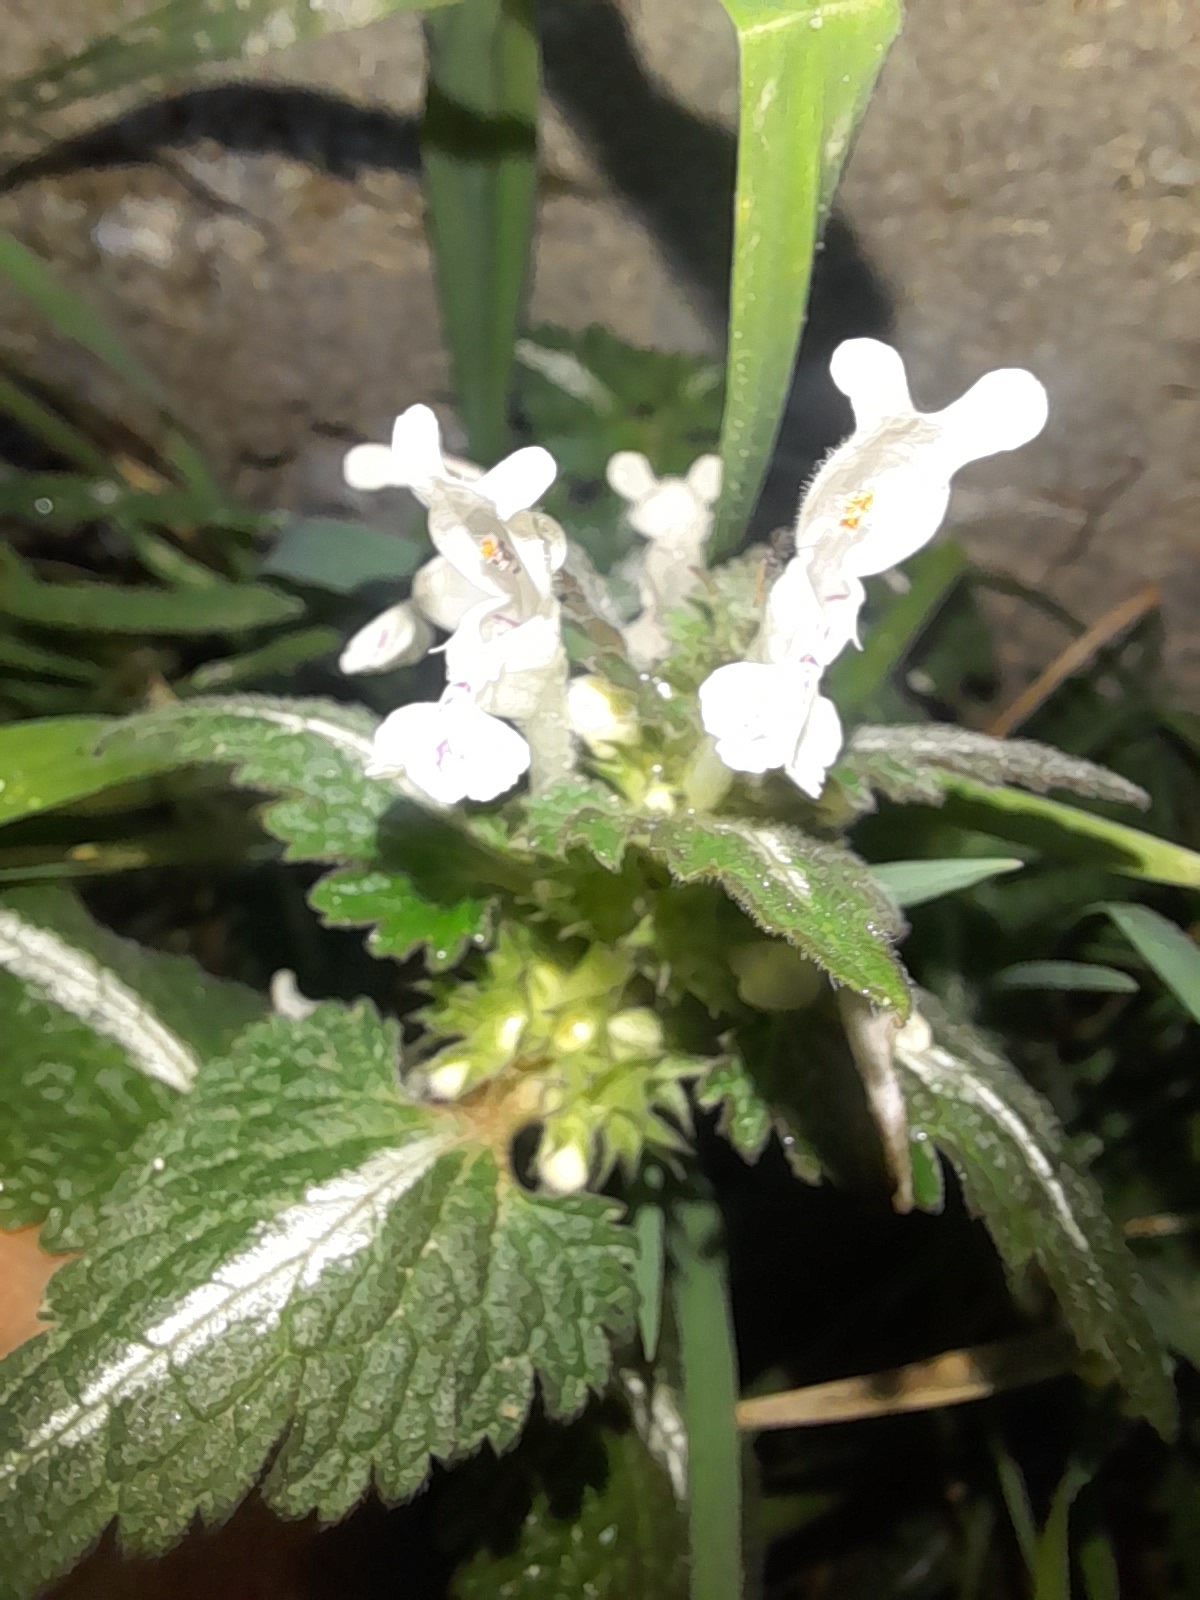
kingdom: Plantae
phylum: Tracheophyta
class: Magnoliopsida
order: Lamiales
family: Lamiaceae
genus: Lamium
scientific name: Lamium bifidum
